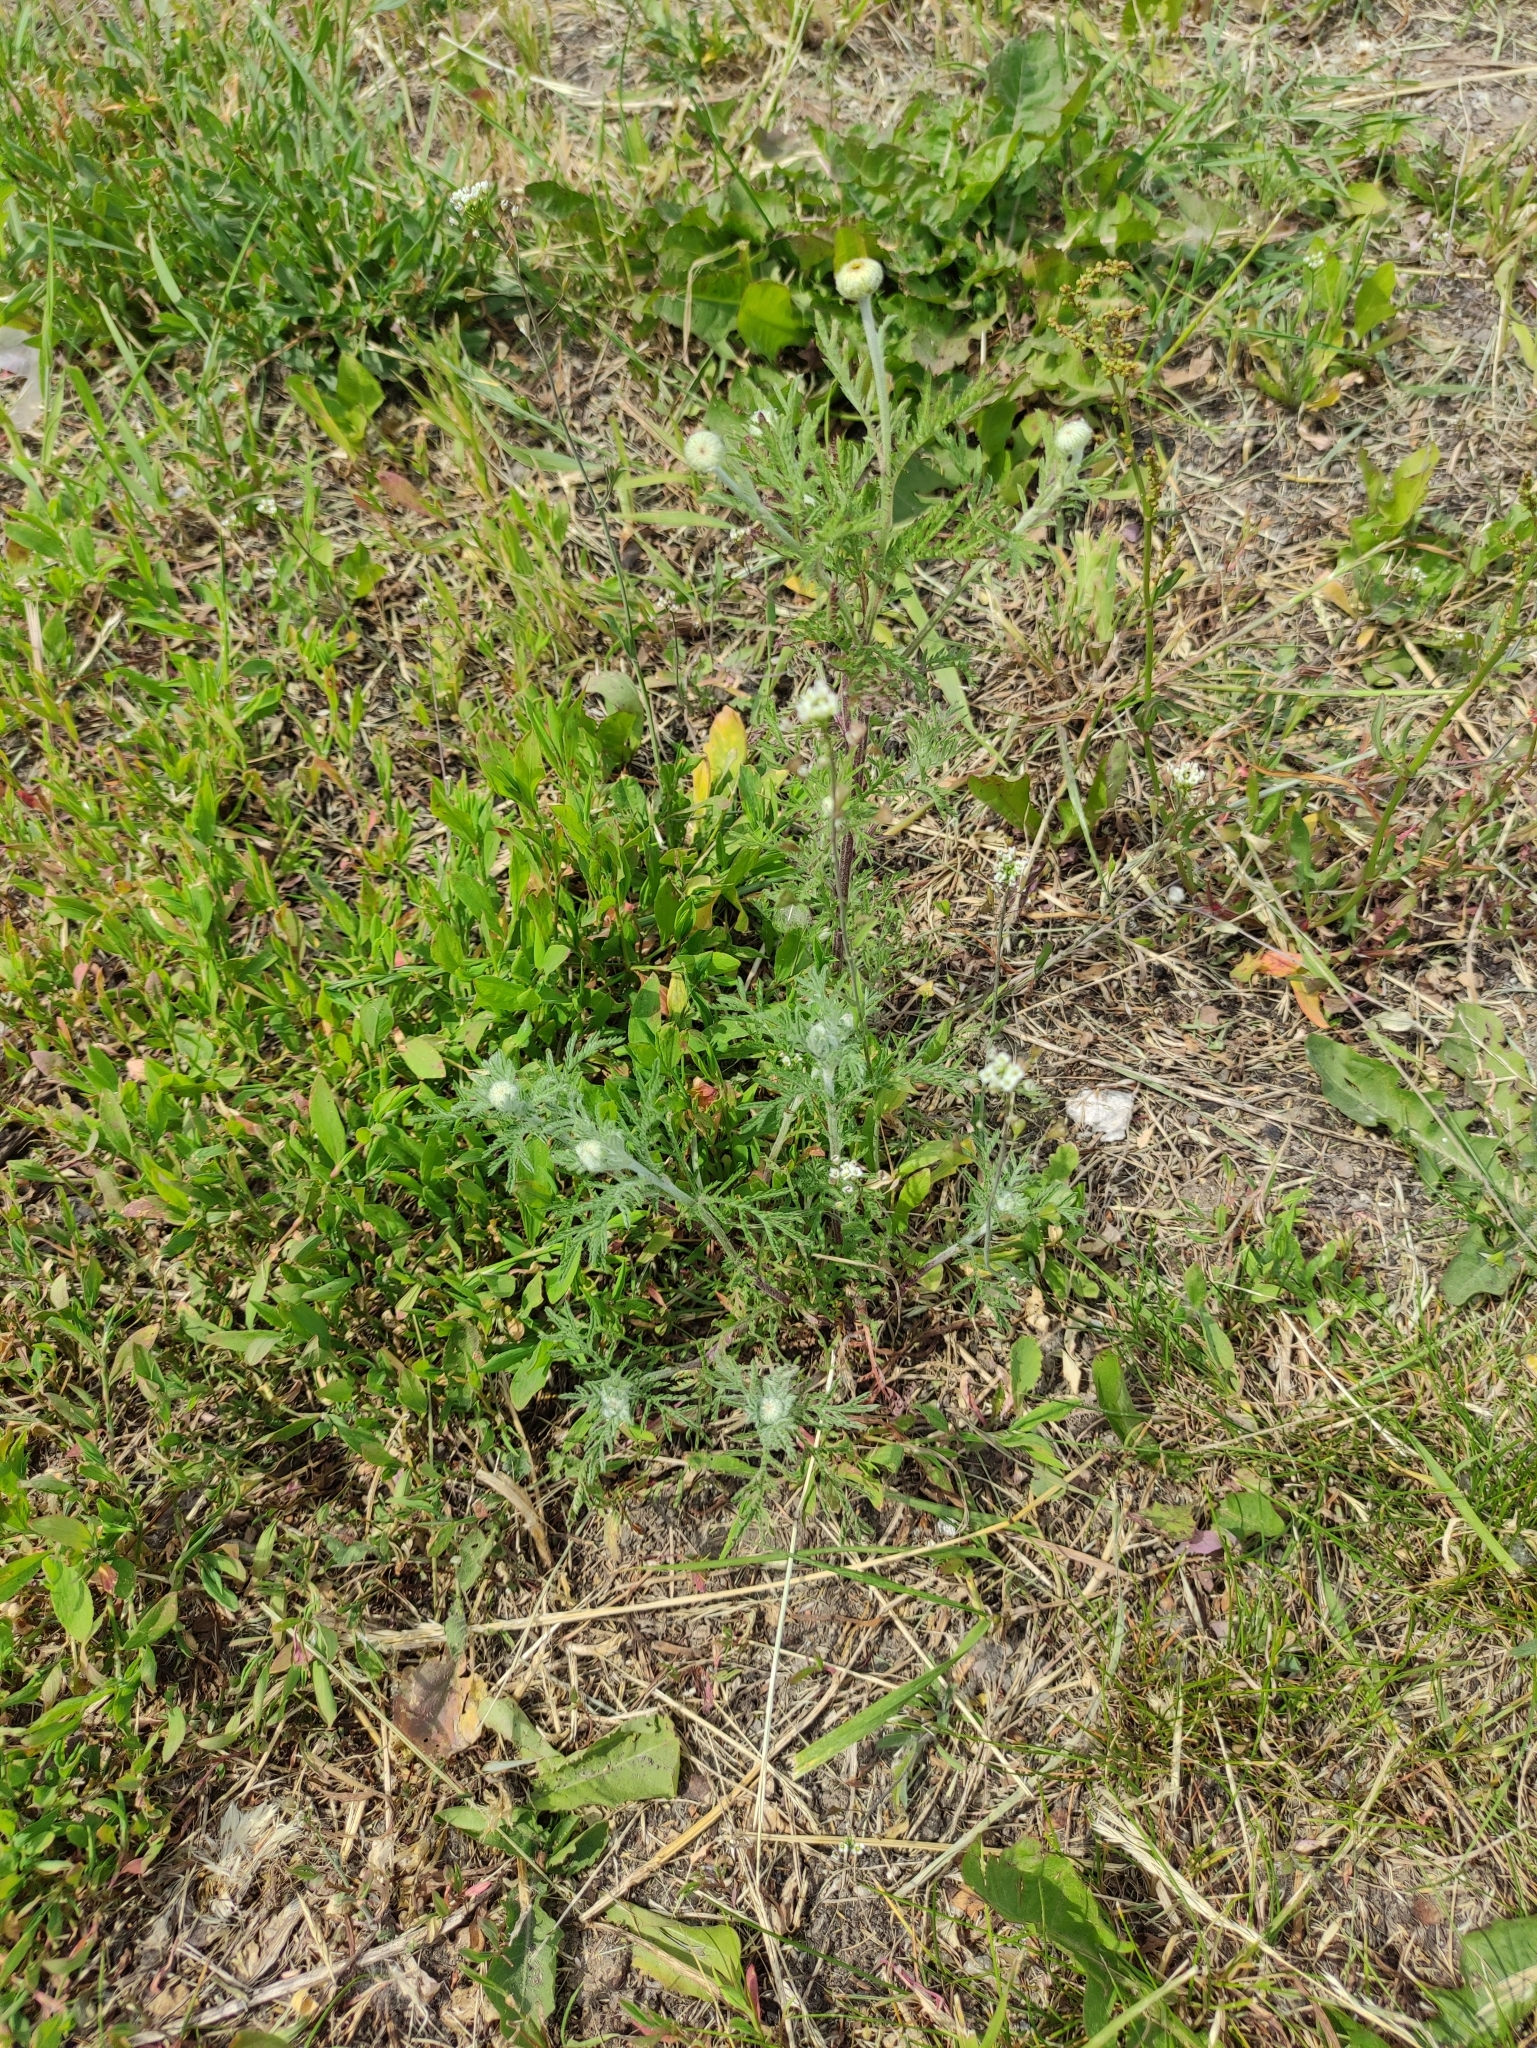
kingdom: Plantae
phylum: Tracheophyta
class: Magnoliopsida
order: Asterales
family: Asteraceae
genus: Cota
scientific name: Cota tinctoria
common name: Golden chamomile
